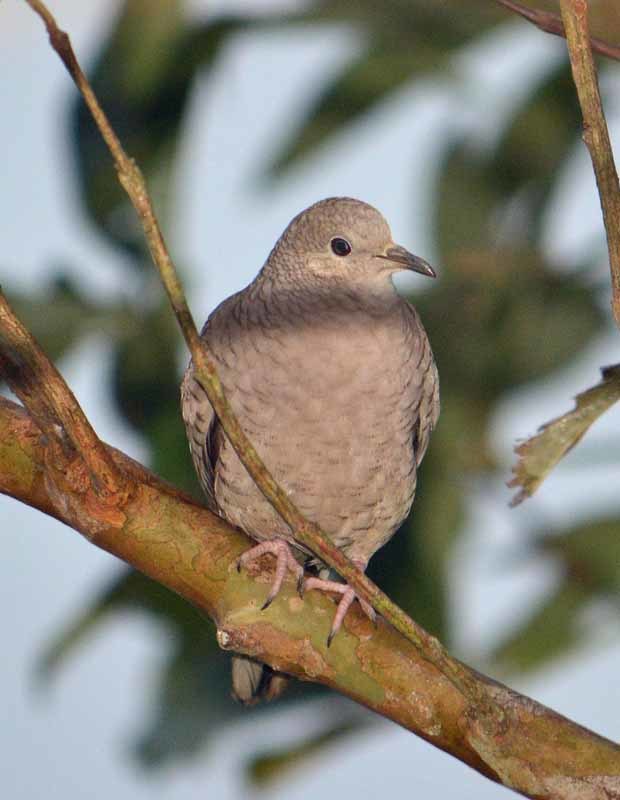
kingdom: Animalia
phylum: Chordata
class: Aves
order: Columbiformes
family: Columbidae
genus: Columbina
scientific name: Columbina inca
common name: Inca dove
